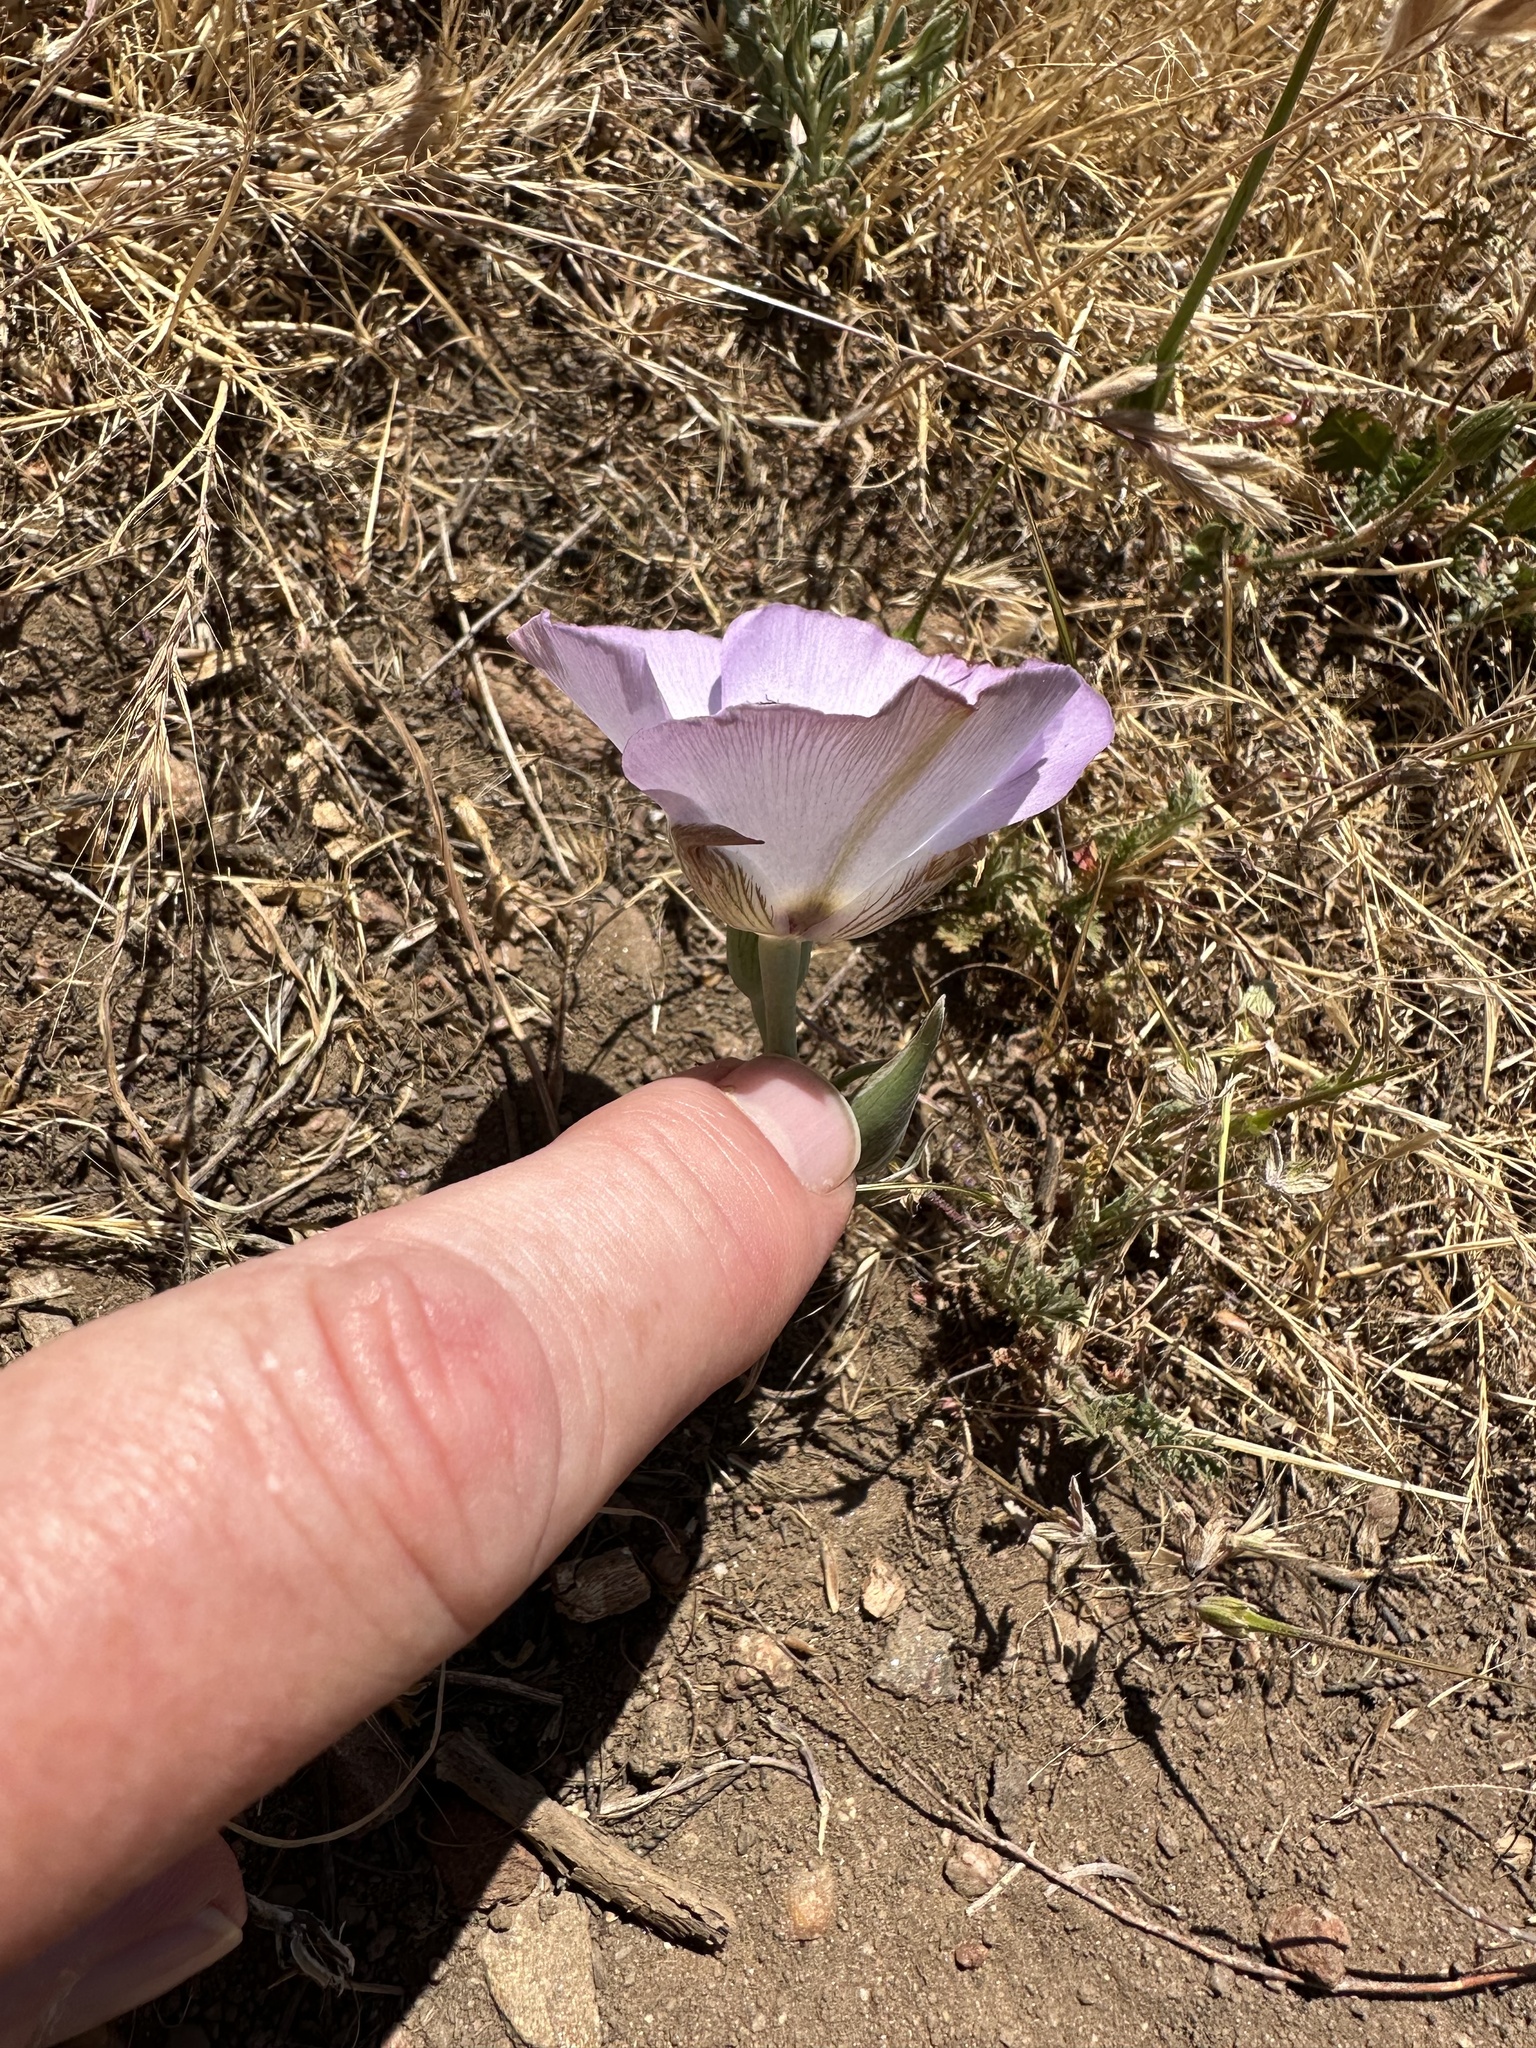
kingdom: Plantae
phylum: Tracheophyta
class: Liliopsida
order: Liliales
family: Liliaceae
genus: Calochortus
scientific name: Calochortus invenustus
